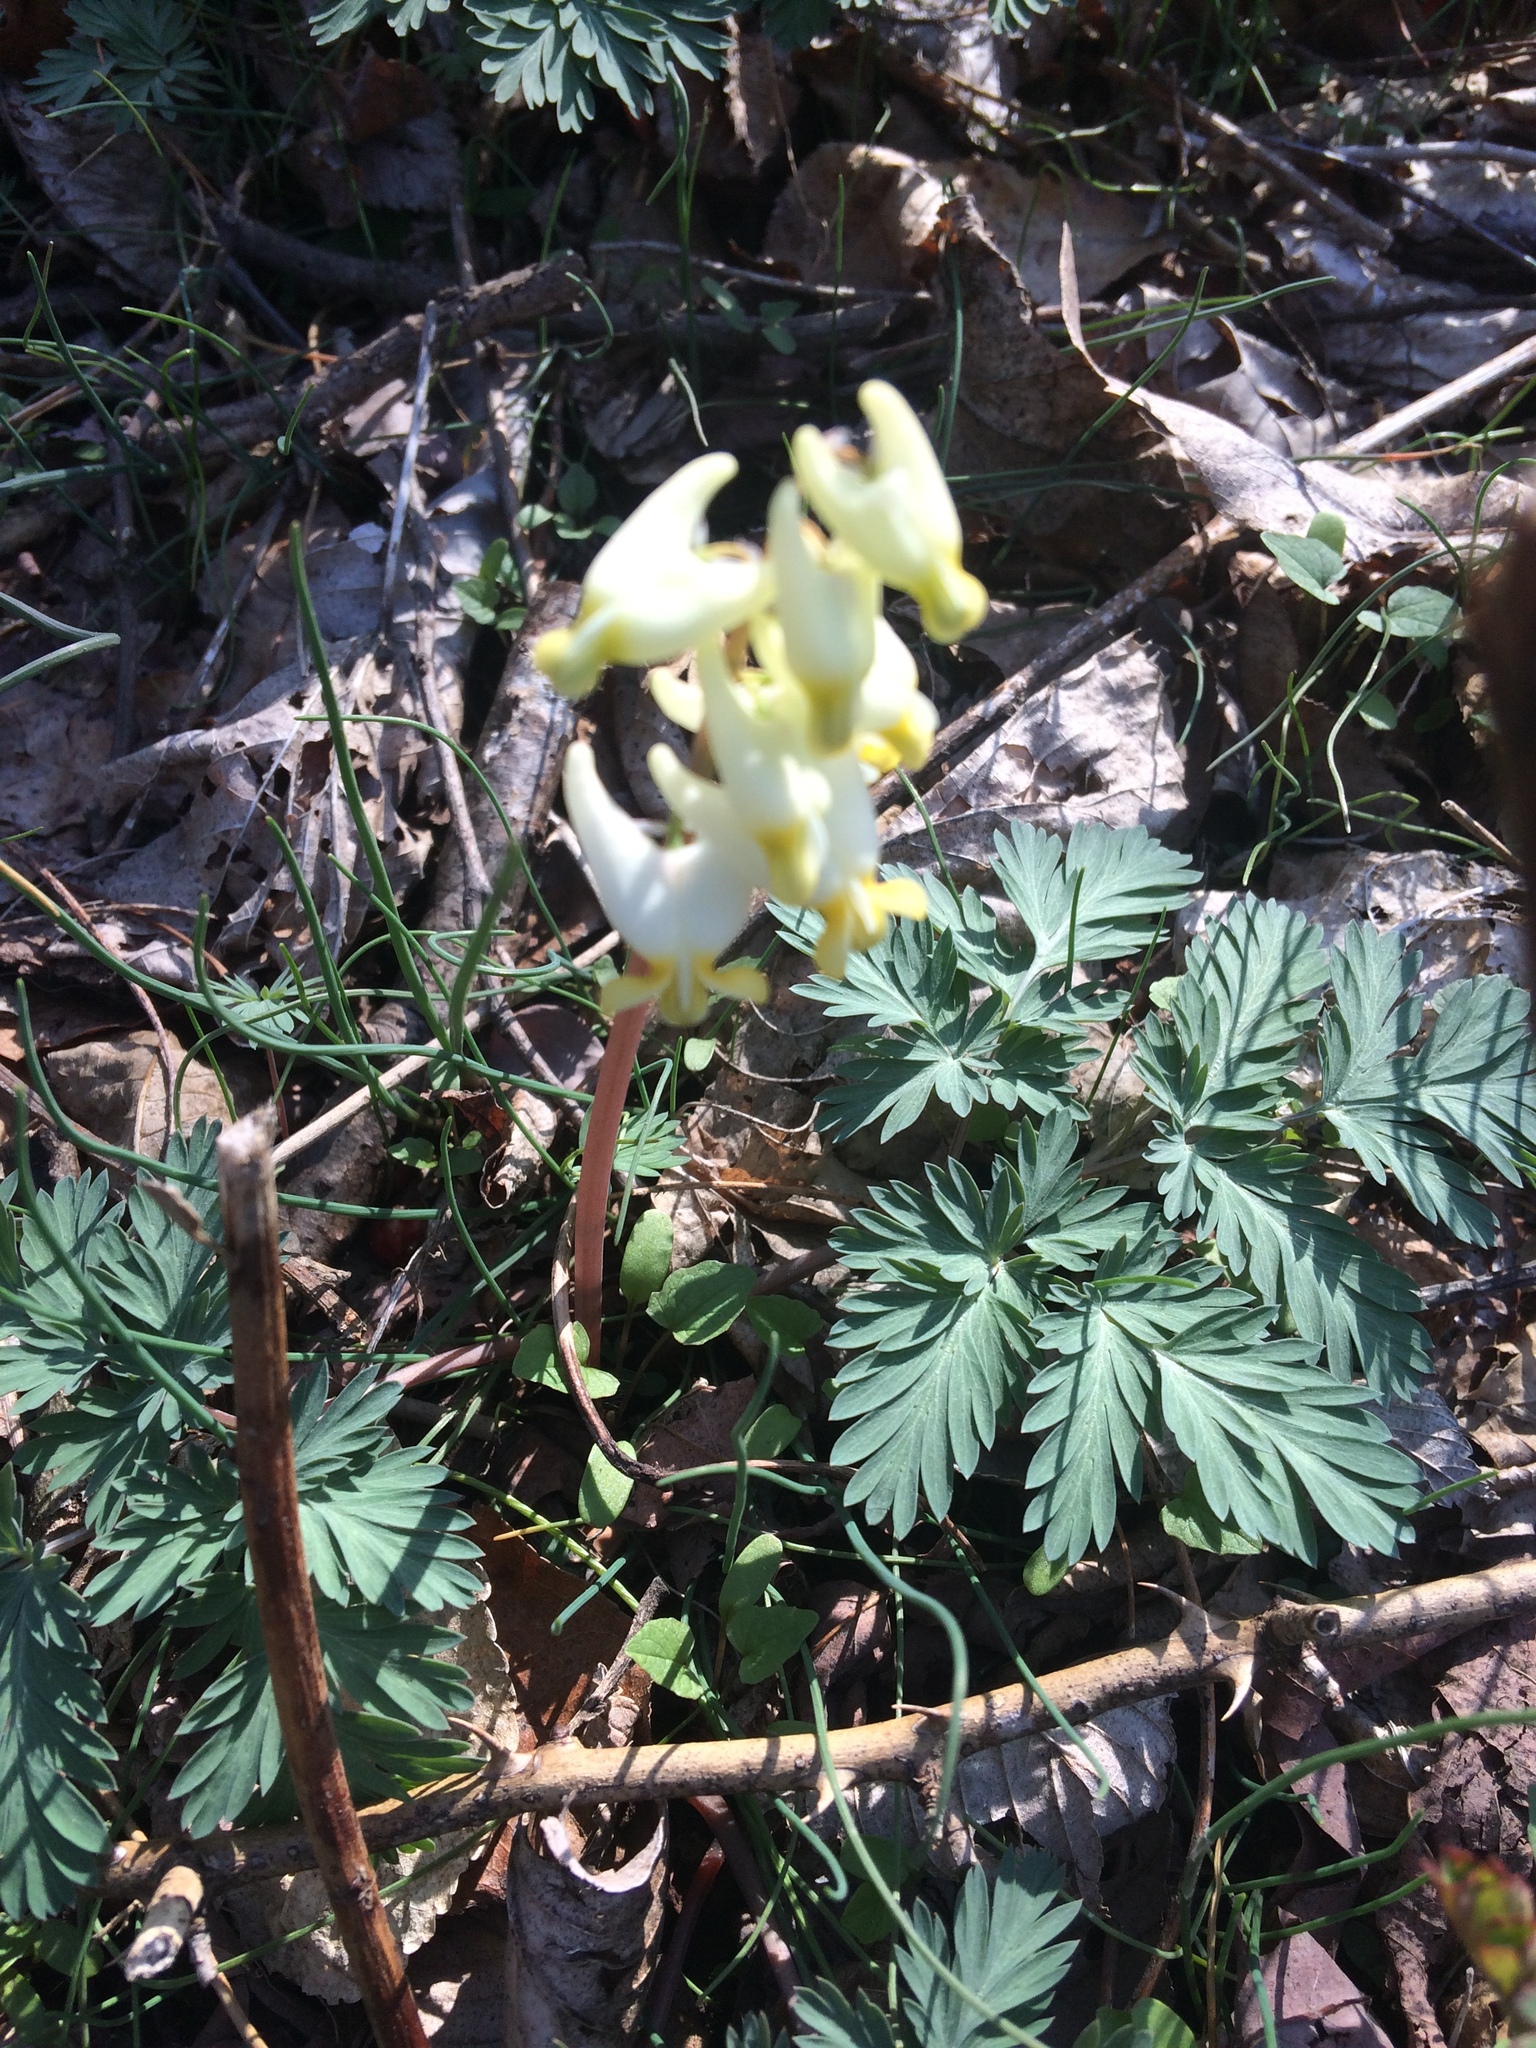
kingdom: Plantae
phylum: Tracheophyta
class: Magnoliopsida
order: Ranunculales
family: Papaveraceae
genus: Dicentra
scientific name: Dicentra cucullaria
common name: Dutchman's breeches
